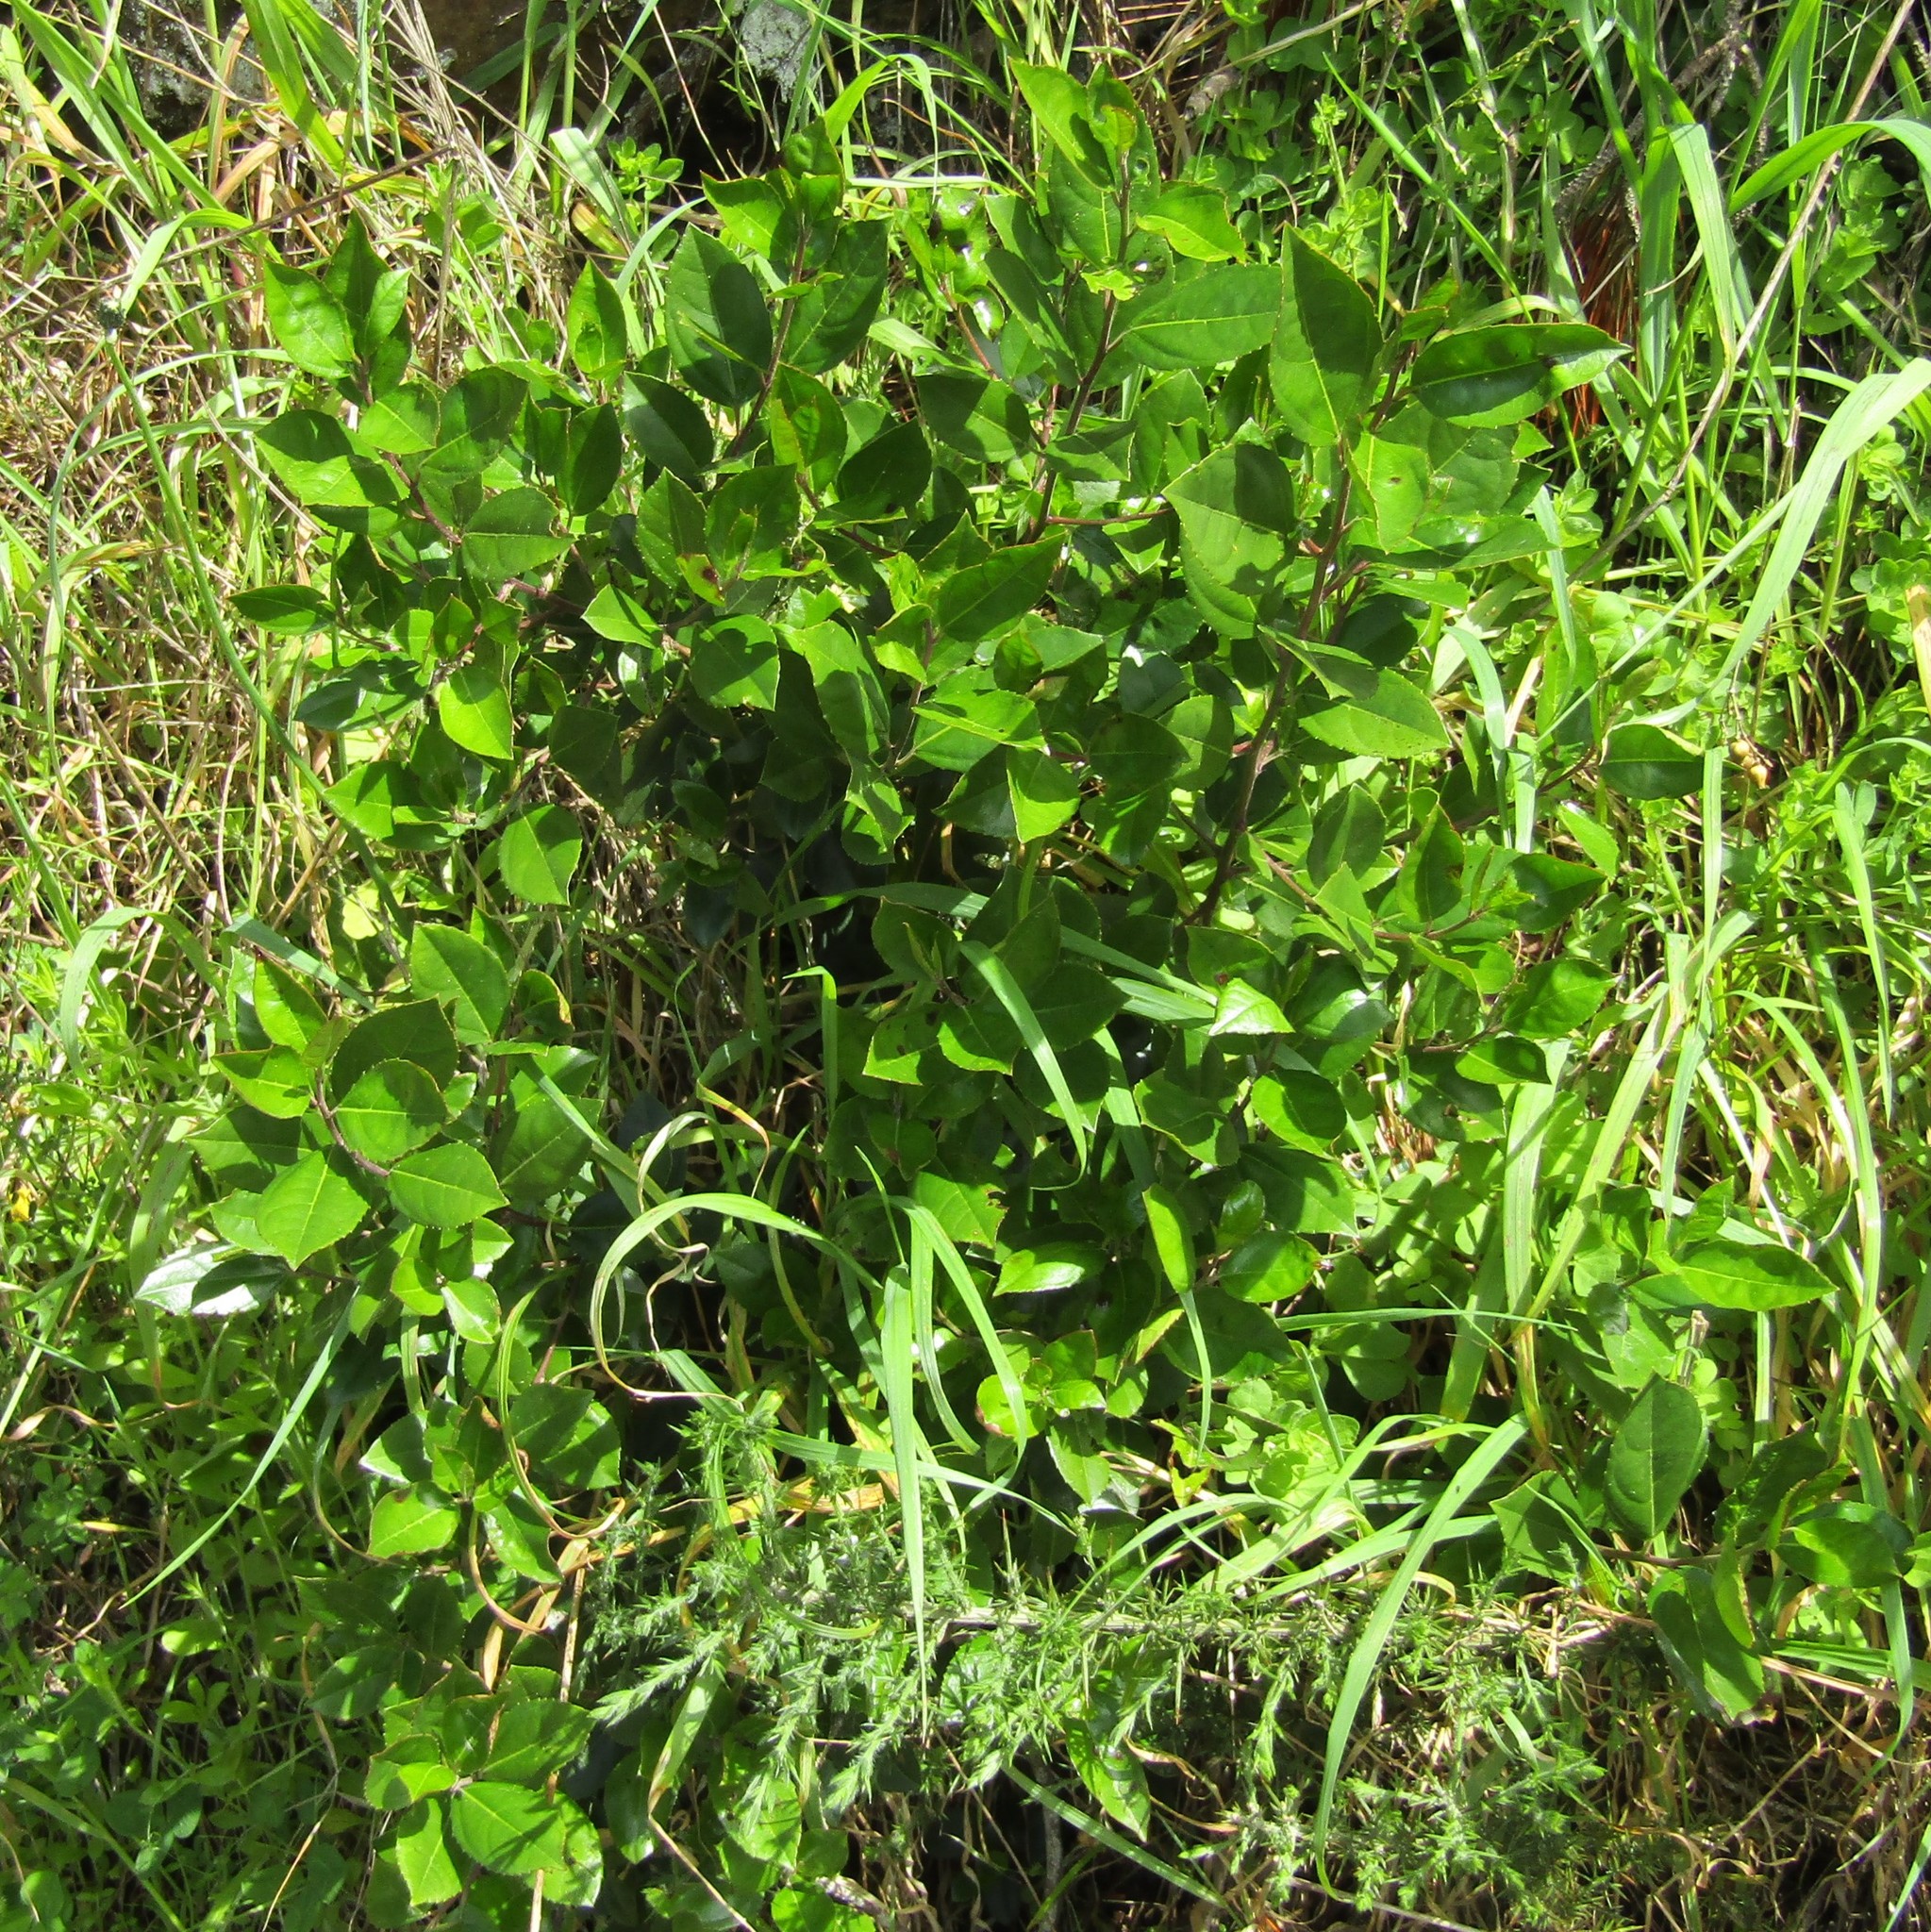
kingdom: Plantae
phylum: Tracheophyta
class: Magnoliopsida
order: Rosales
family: Rhamnaceae
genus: Rhamnus
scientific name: Rhamnus alaternus
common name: Mediterranean buckthorn
